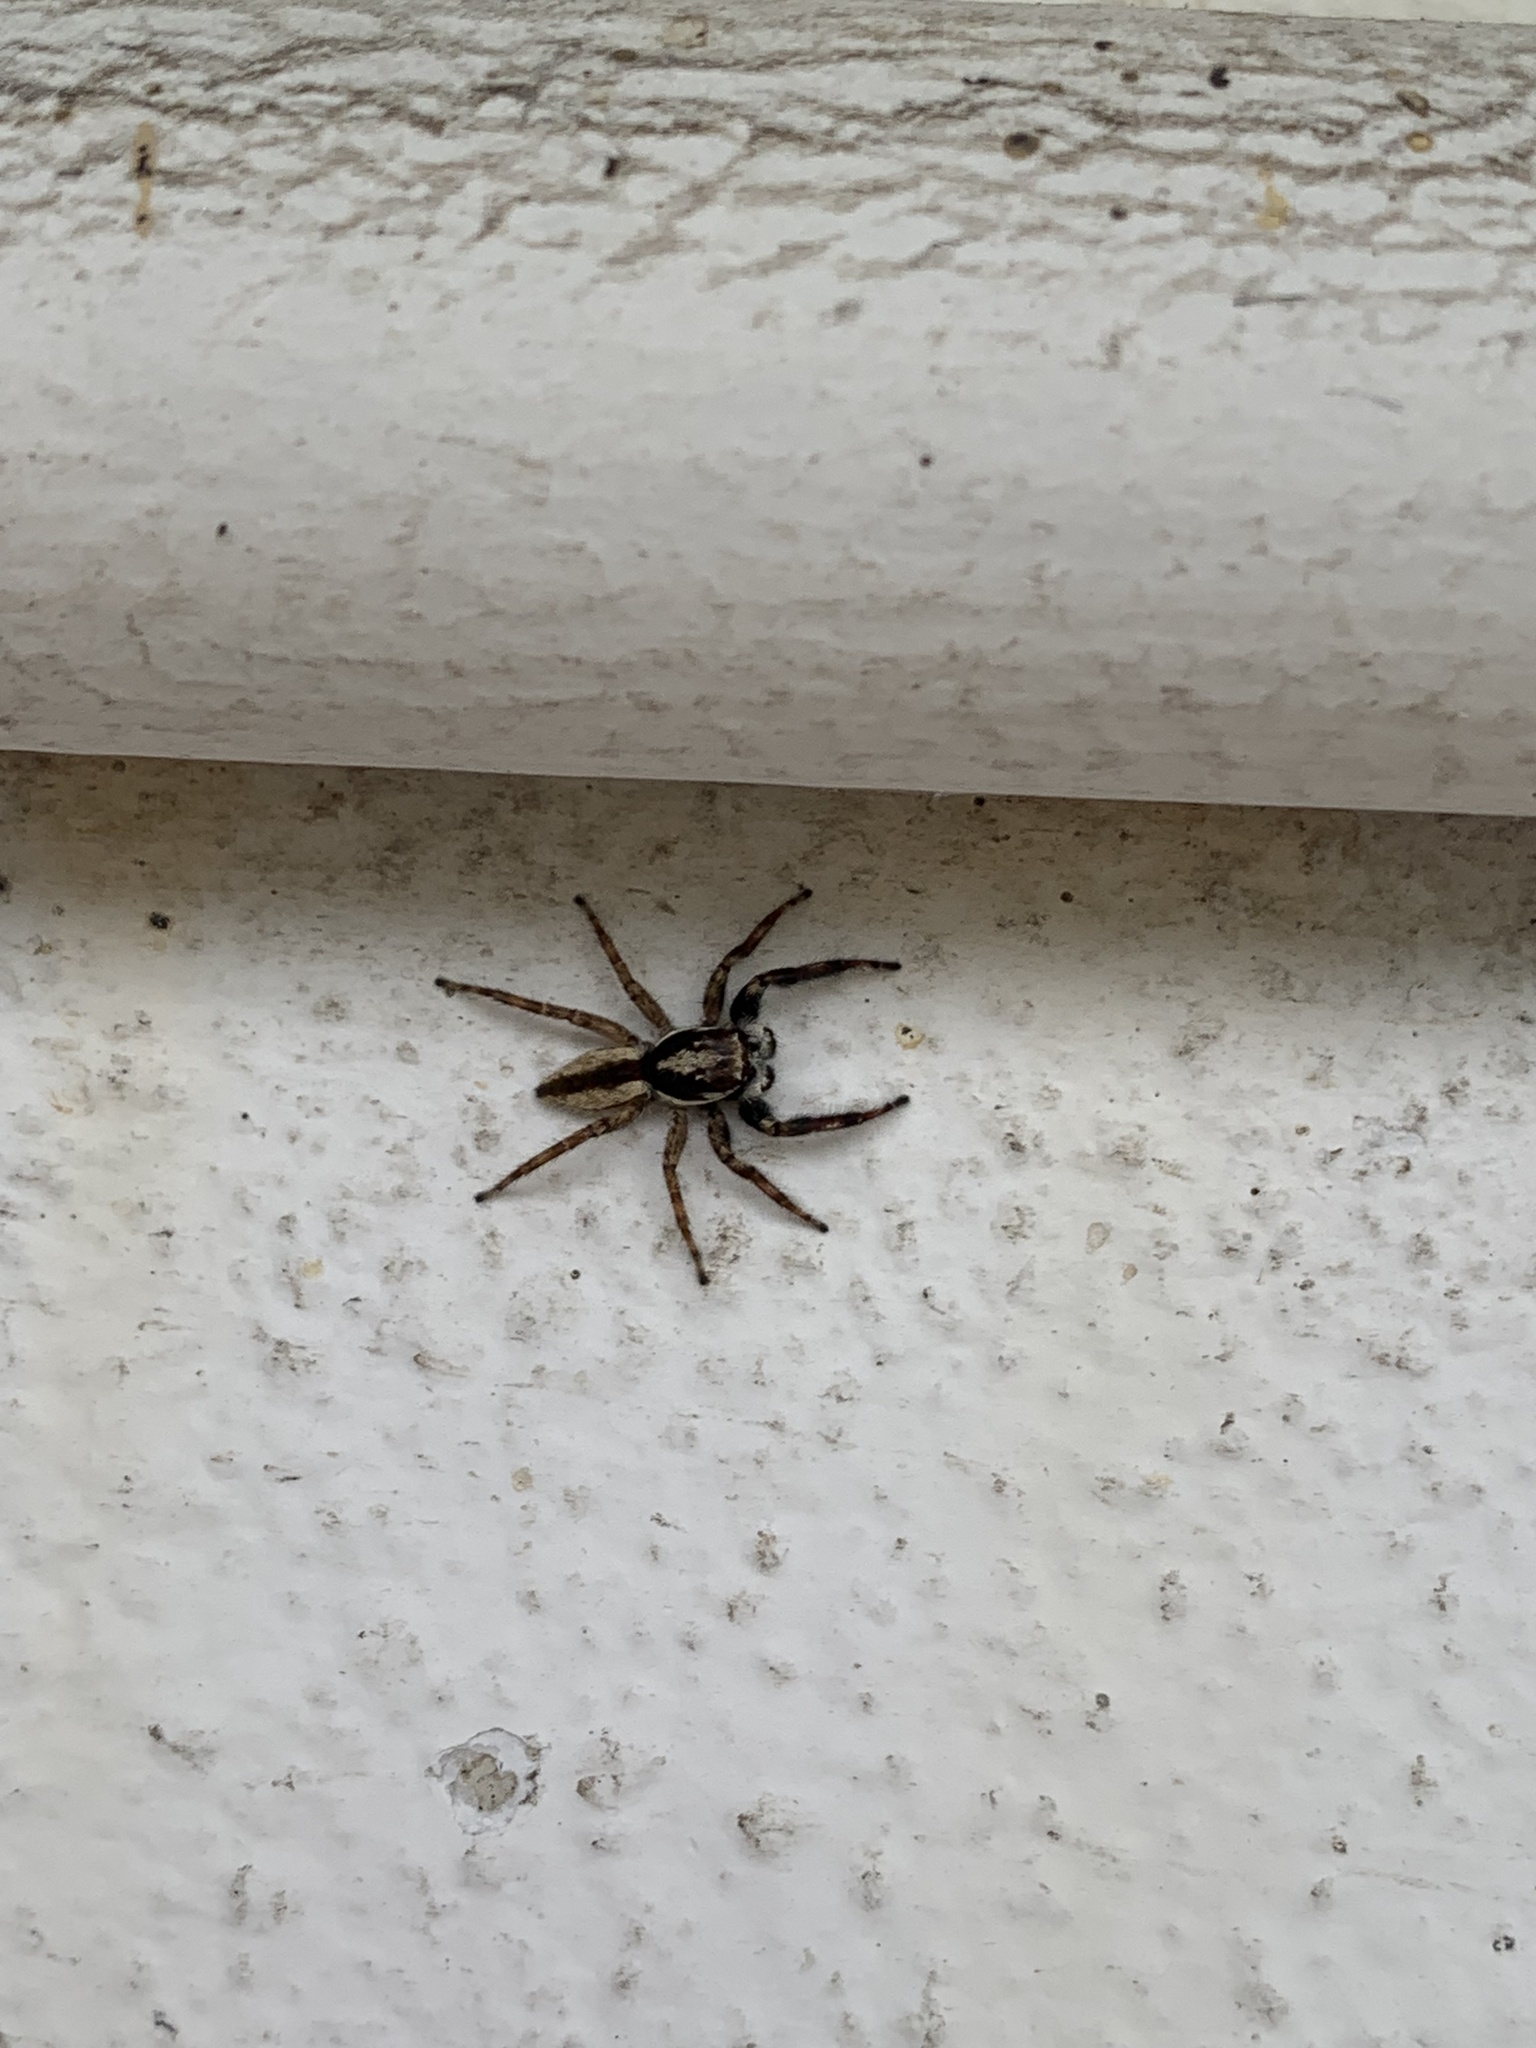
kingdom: Animalia
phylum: Arthropoda
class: Arachnida
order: Araneae
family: Salticidae
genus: Menemerus
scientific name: Menemerus bivittatus
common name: Gray wall jumper
